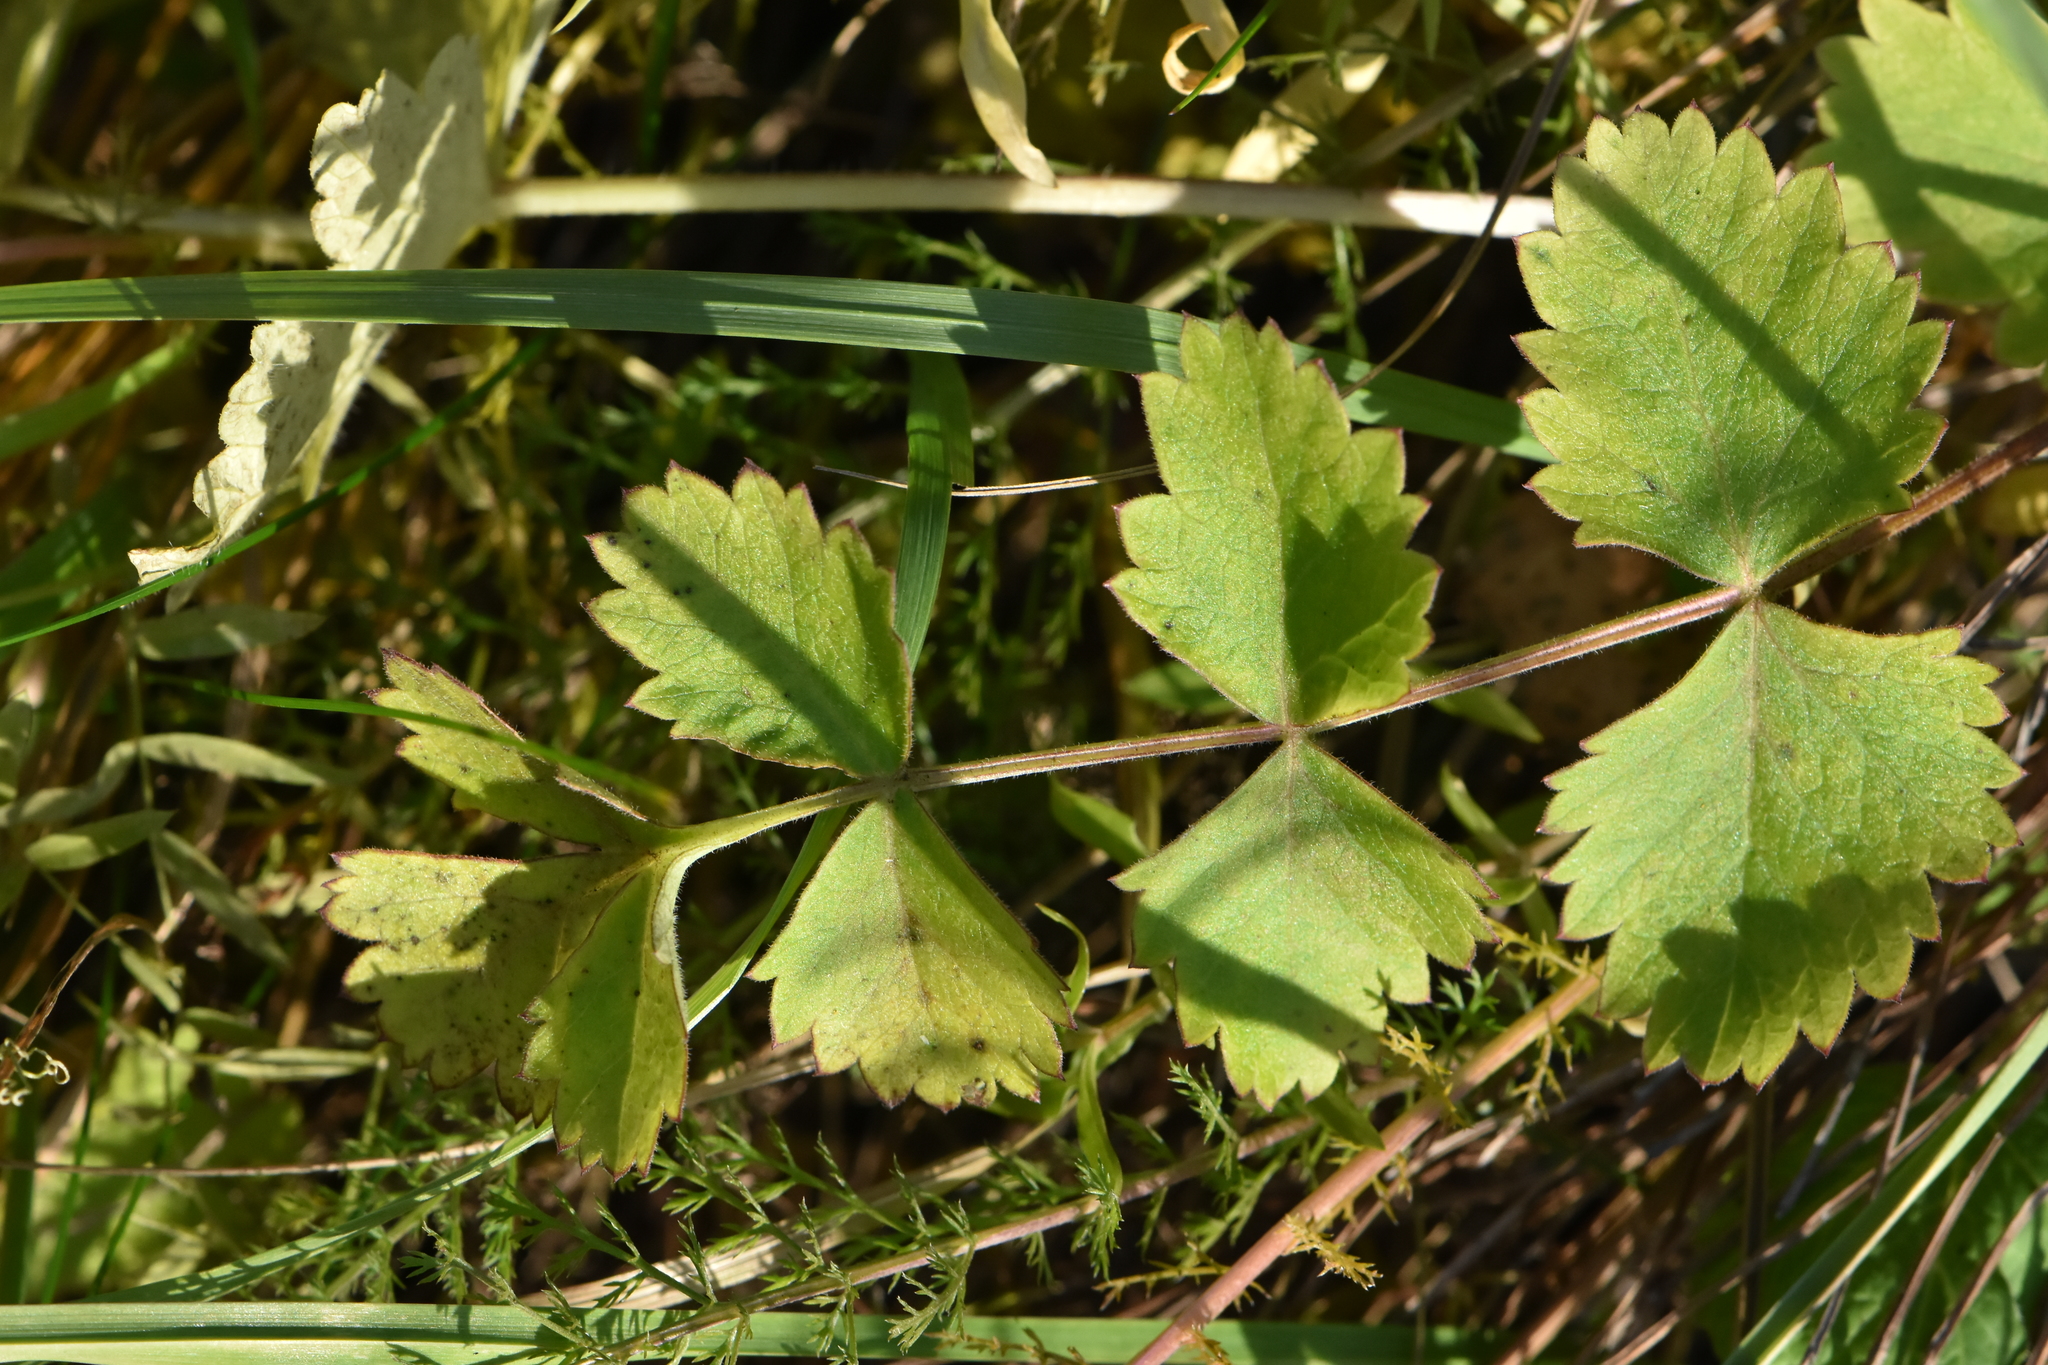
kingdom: Plantae
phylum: Tracheophyta
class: Magnoliopsida
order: Apiales
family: Apiaceae
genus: Pimpinella
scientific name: Pimpinella saxifraga
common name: Burnet-saxifrage
